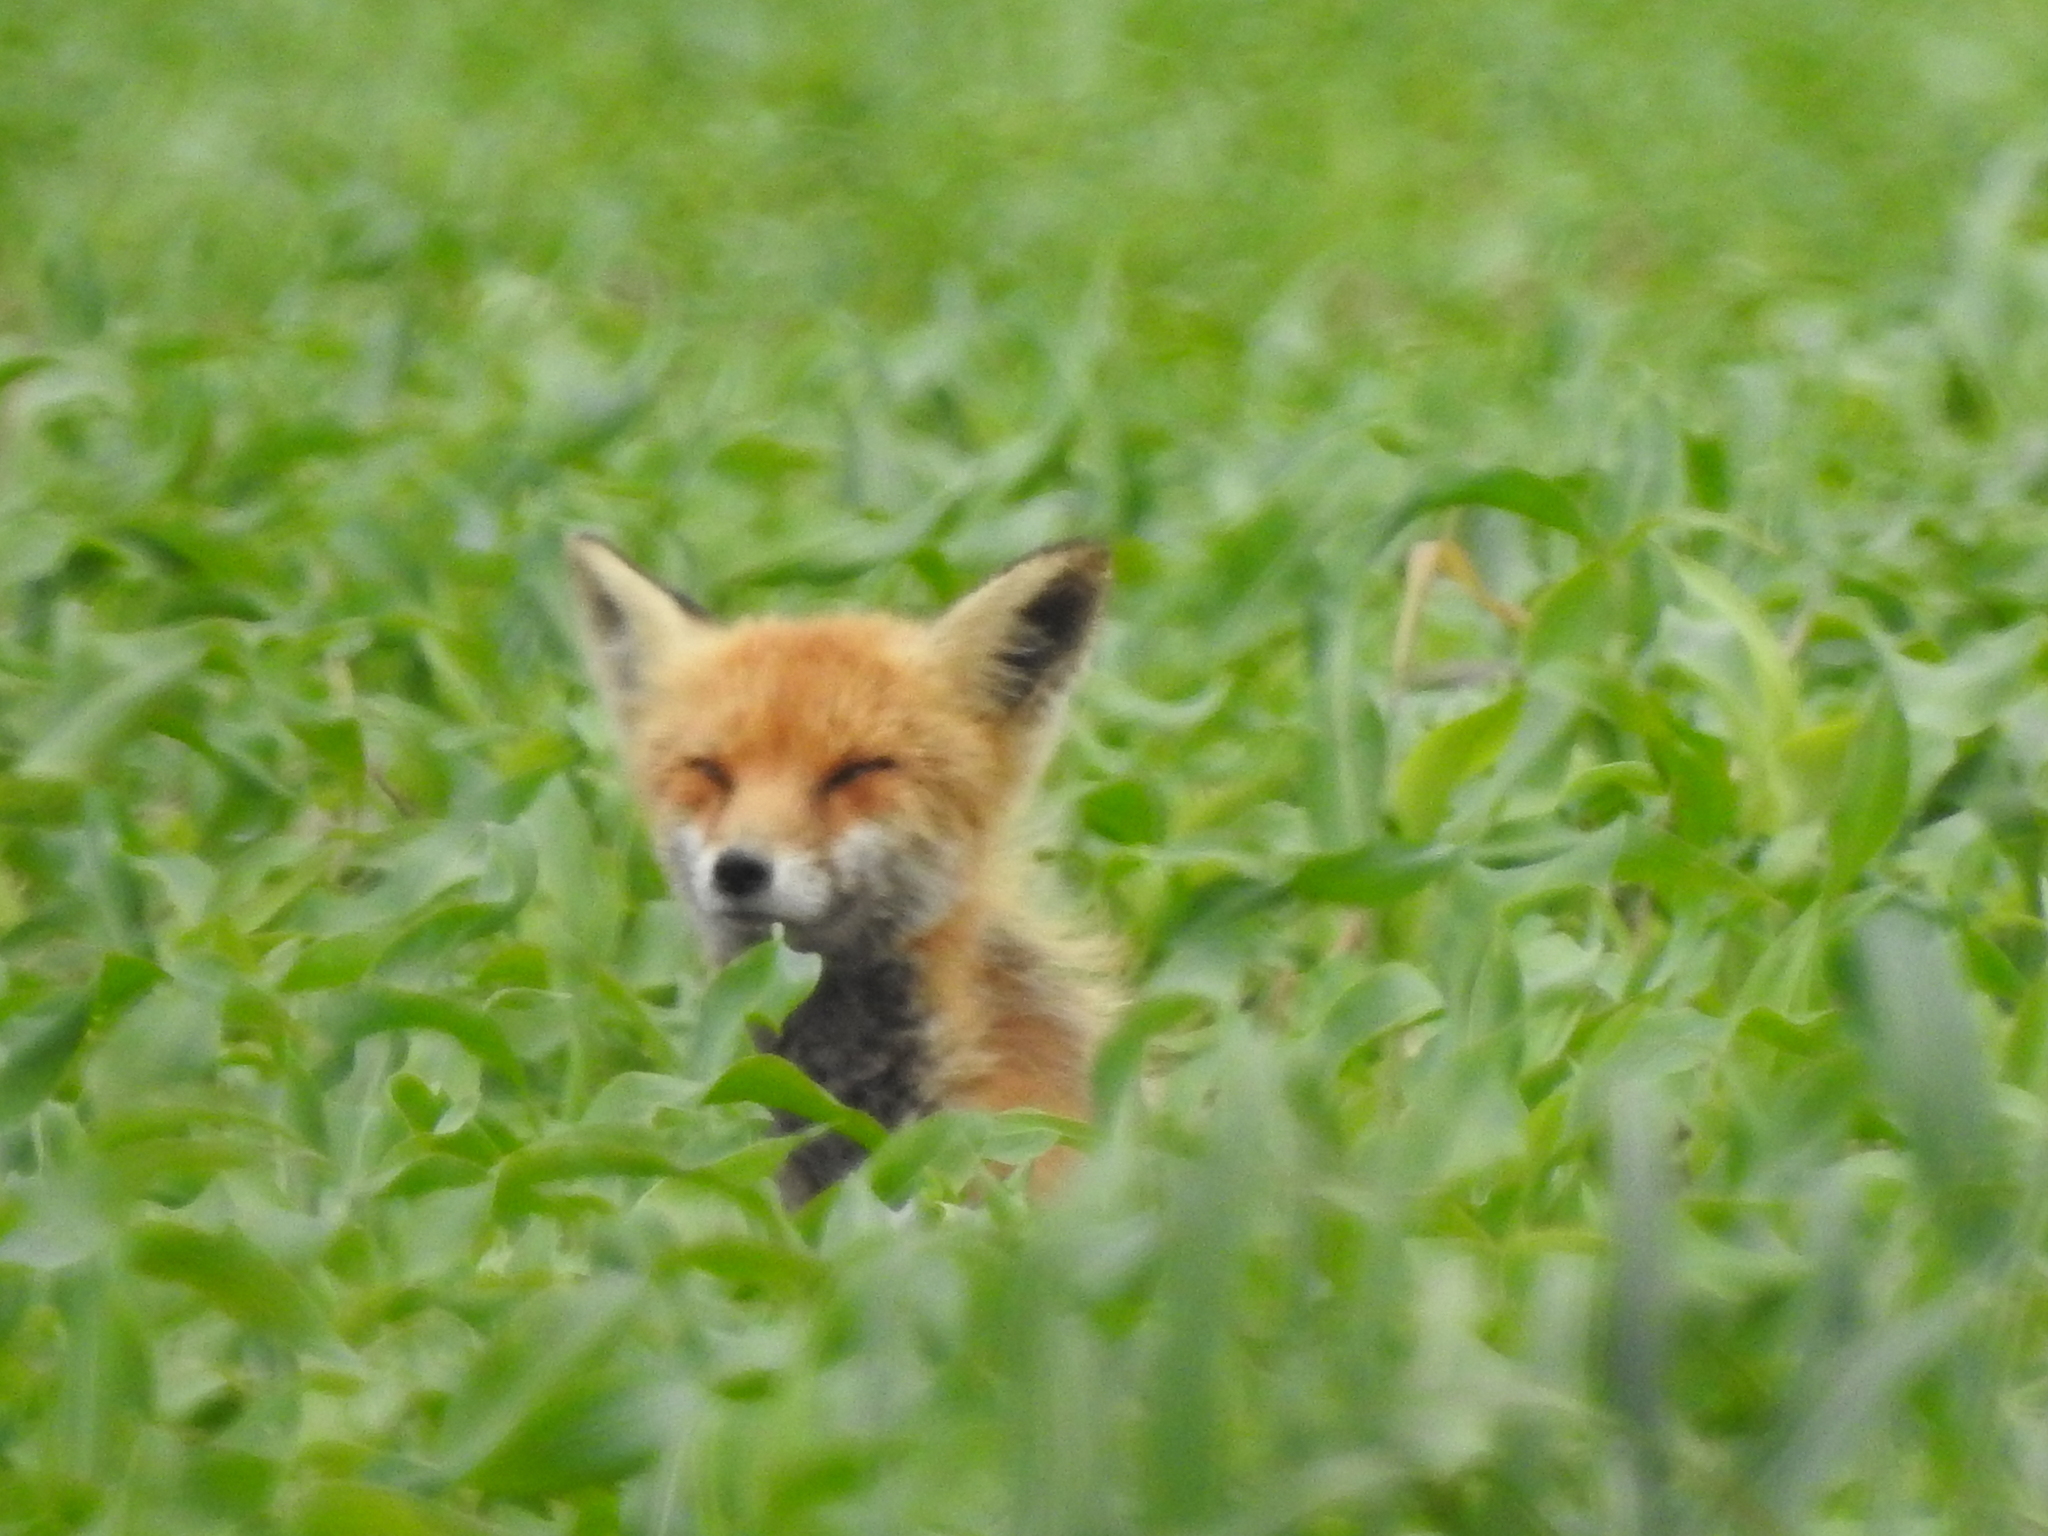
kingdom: Animalia
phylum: Chordata
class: Mammalia
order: Carnivora
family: Canidae
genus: Vulpes
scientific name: Vulpes vulpes
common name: Red fox
